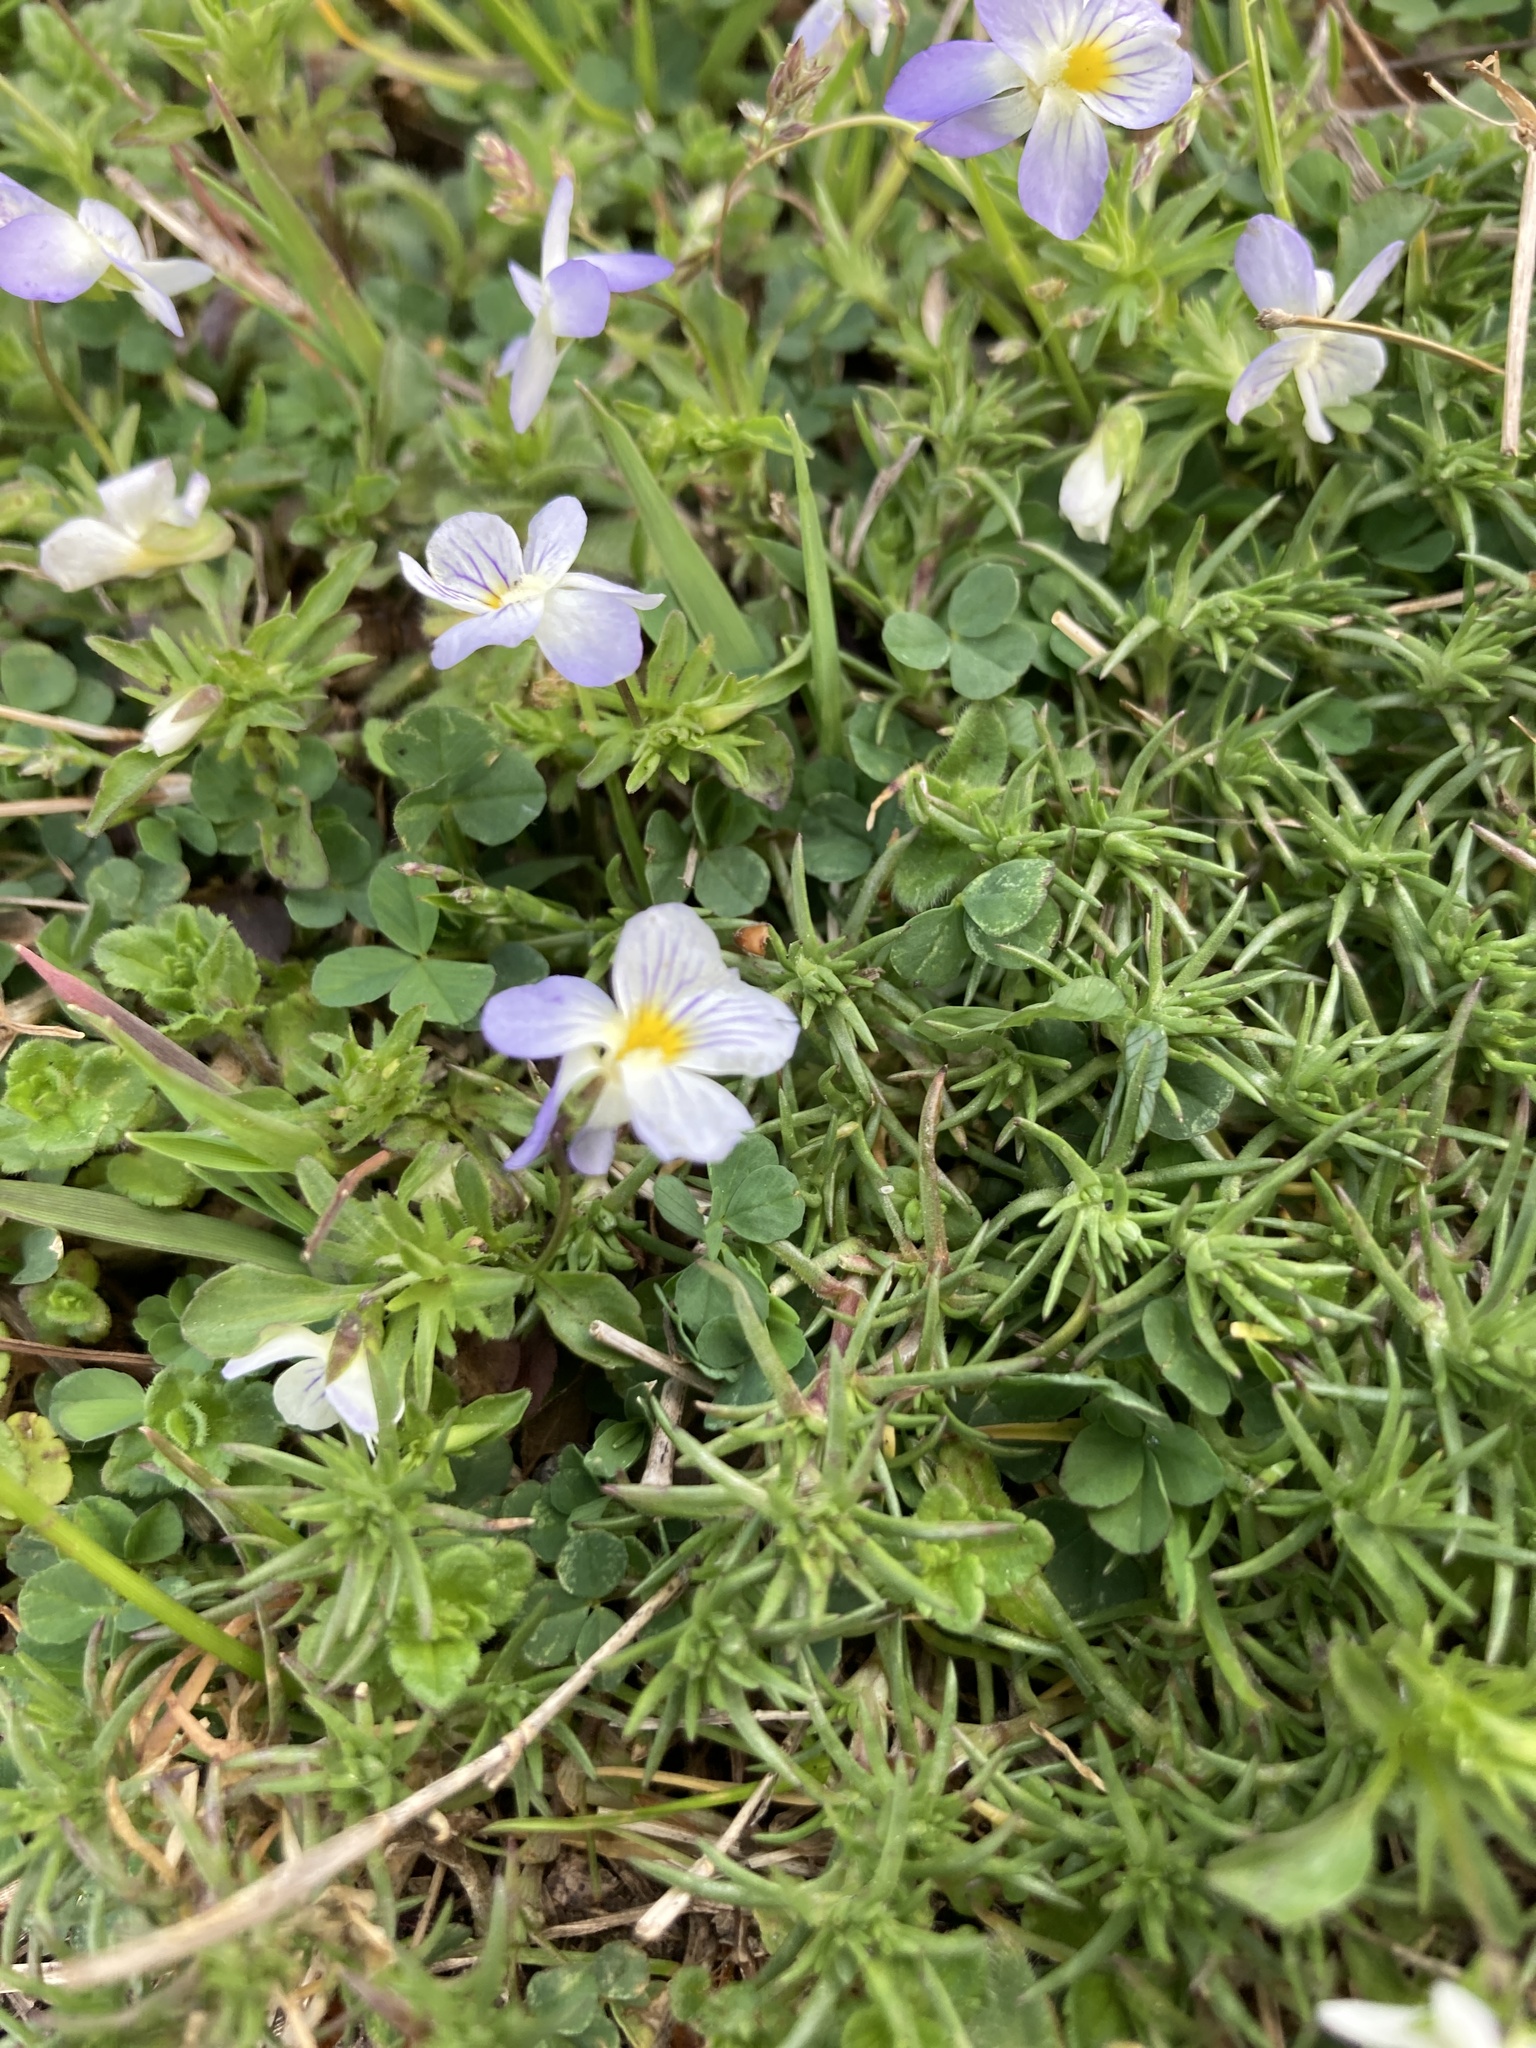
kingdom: Plantae
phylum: Tracheophyta
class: Magnoliopsida
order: Malpighiales
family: Violaceae
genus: Viola
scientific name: Viola rafinesquei
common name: American field pansy
